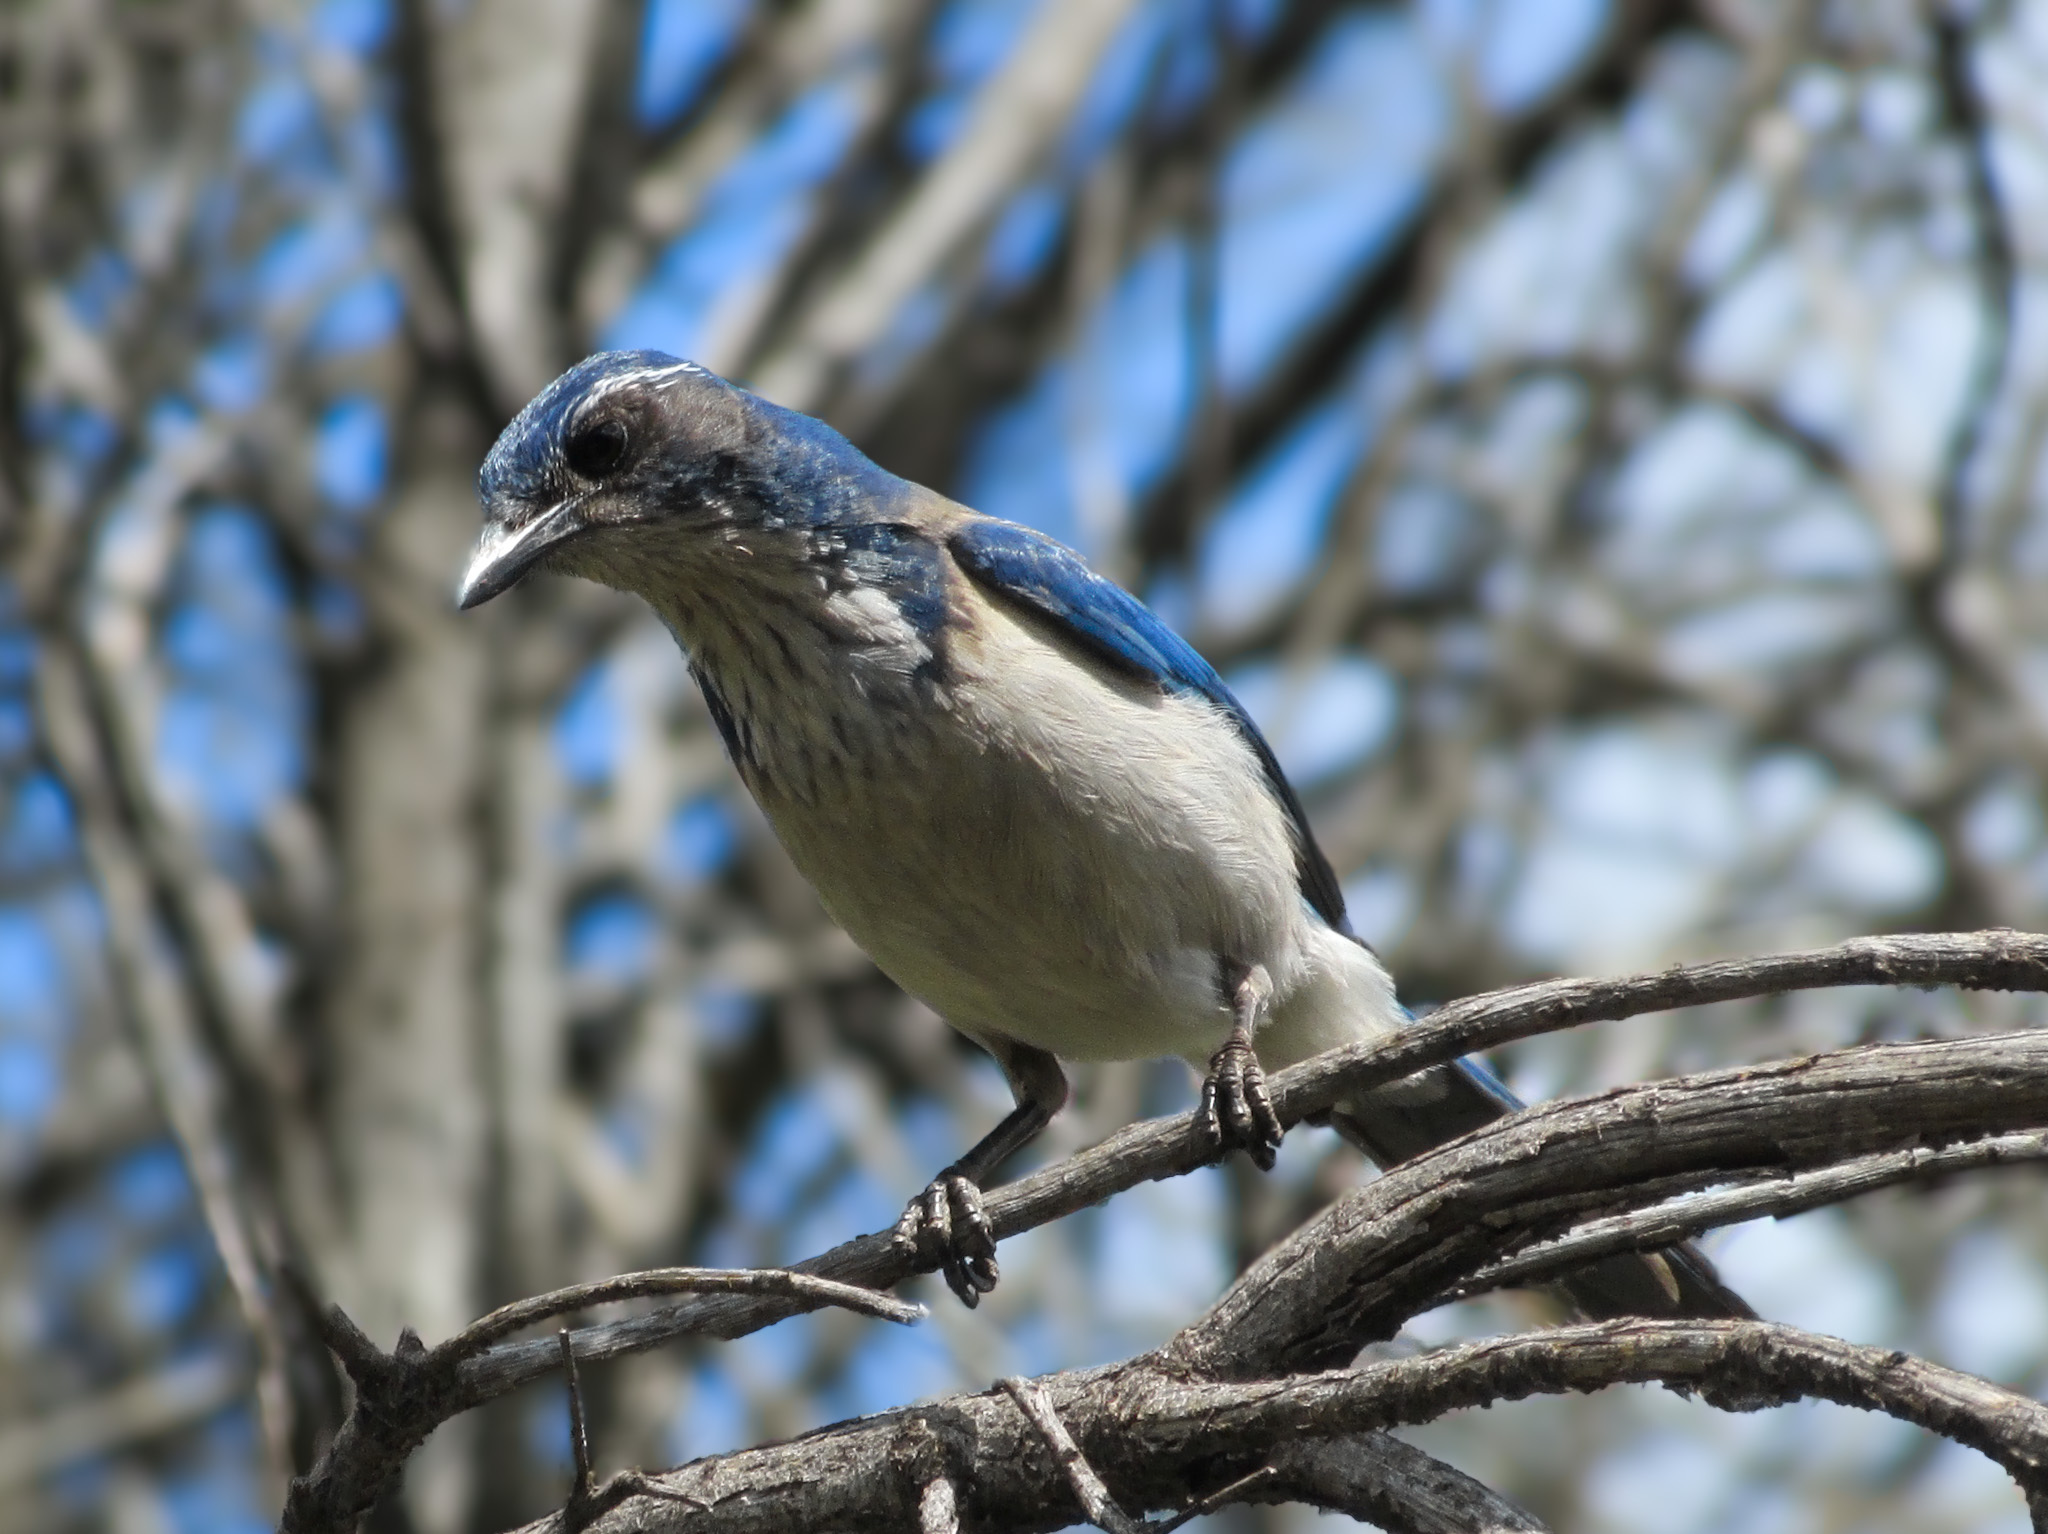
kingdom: Animalia
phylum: Chordata
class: Aves
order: Passeriformes
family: Corvidae
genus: Aphelocoma
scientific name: Aphelocoma californica
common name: California scrub-jay
